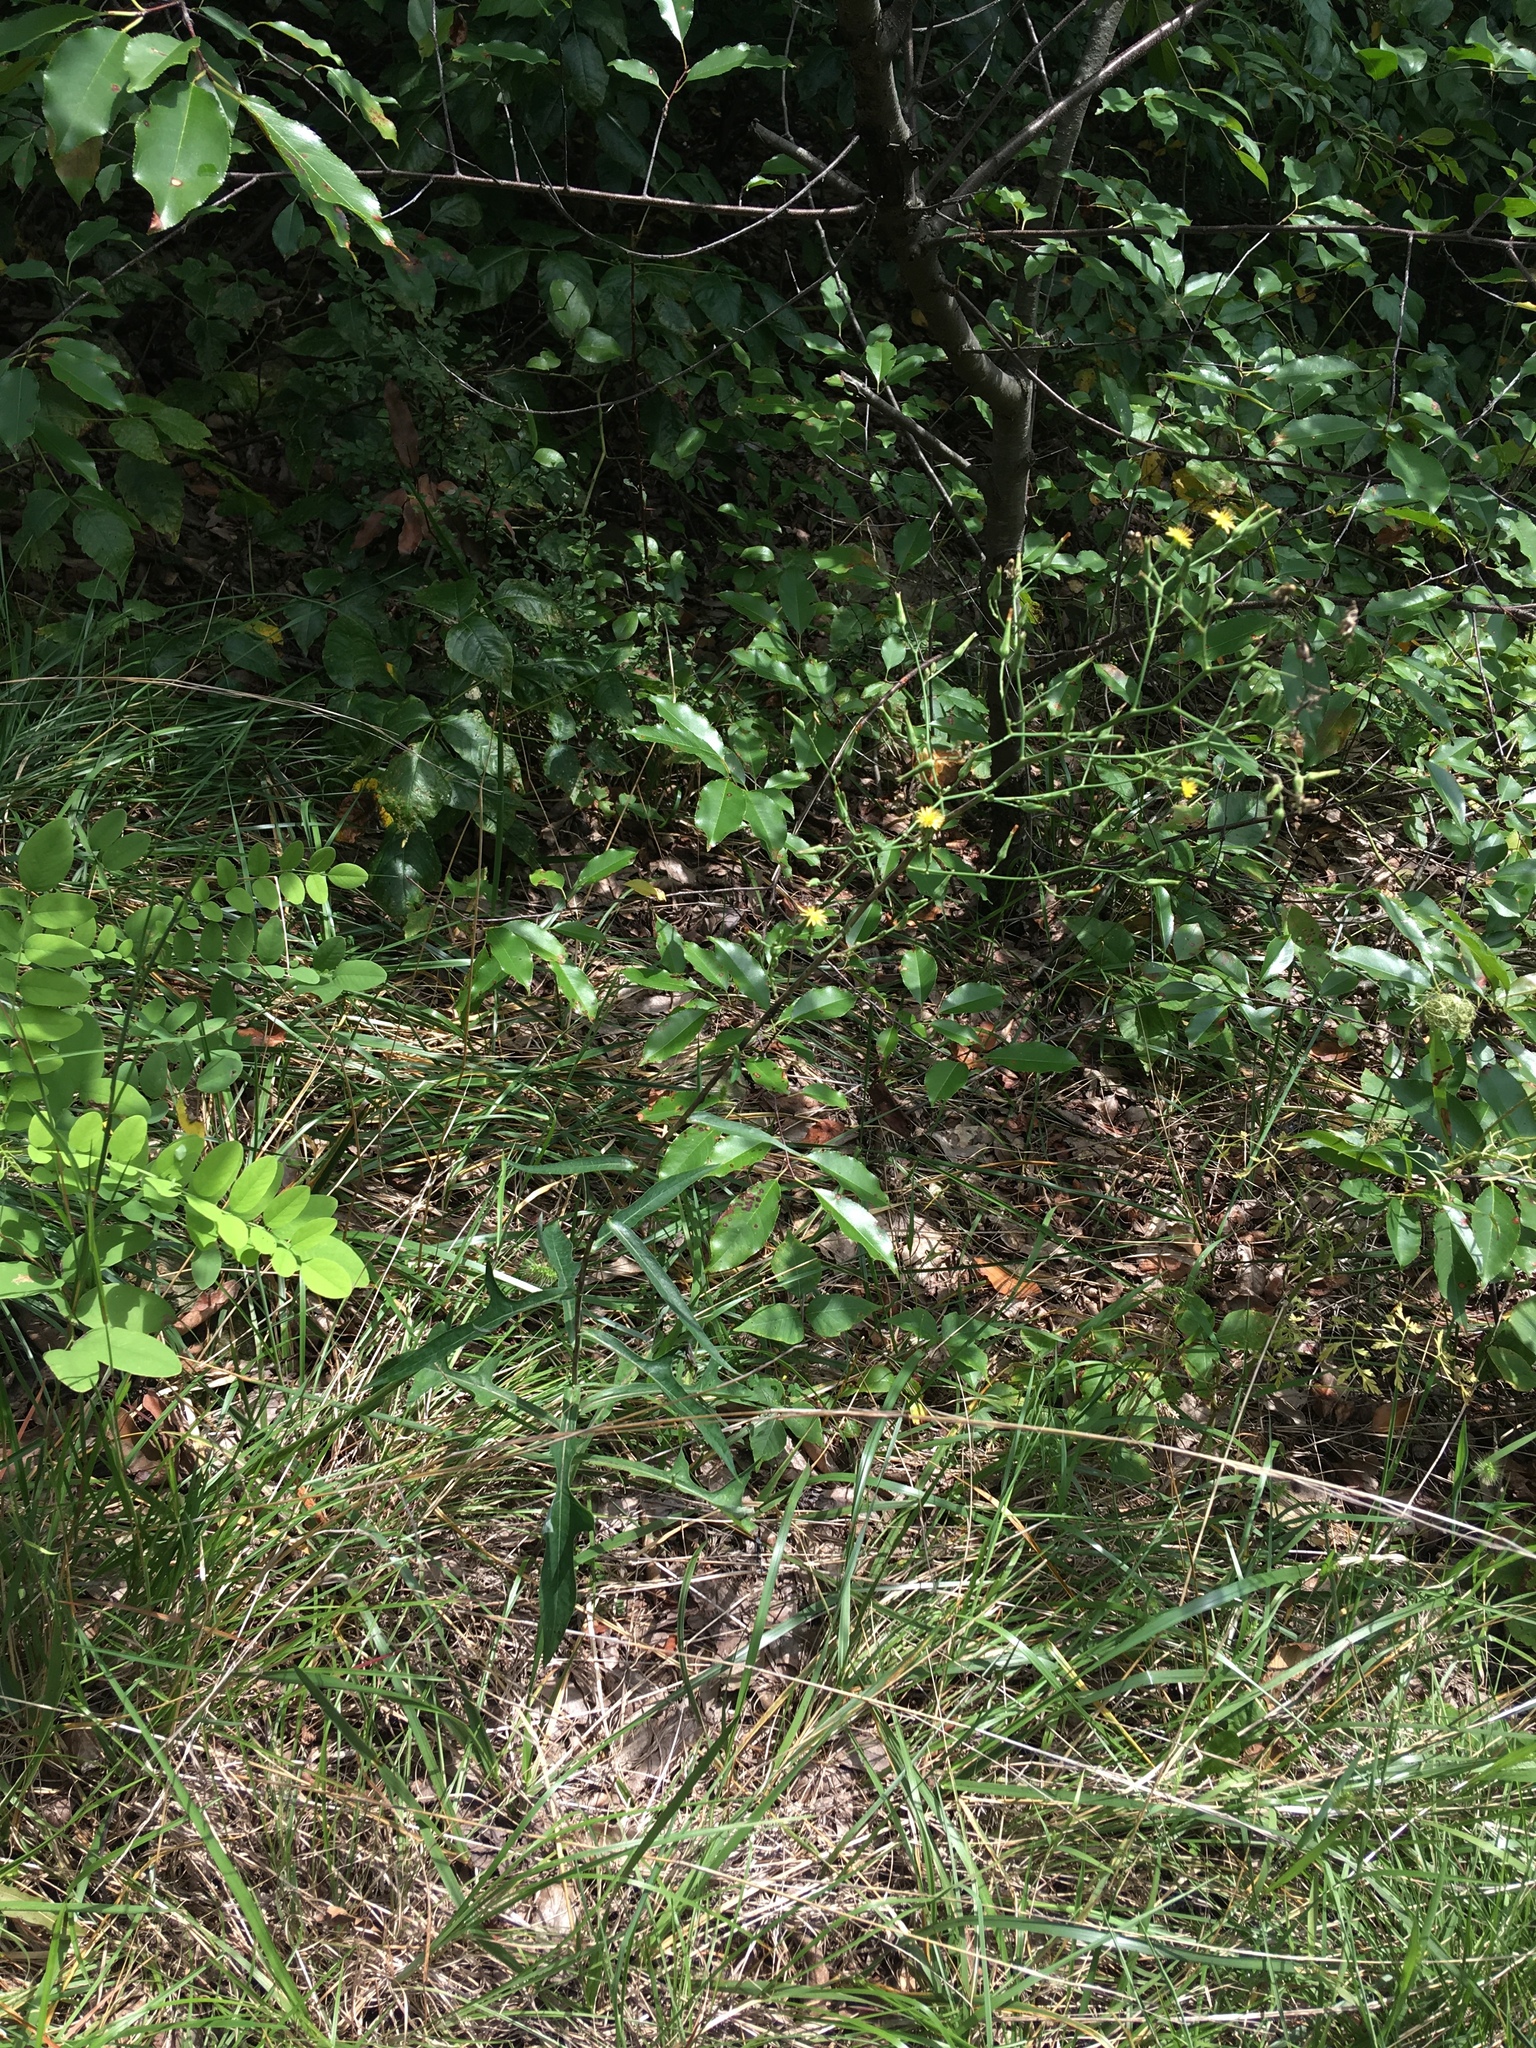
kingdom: Plantae
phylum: Tracheophyta
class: Magnoliopsida
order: Rosales
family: Rosaceae
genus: Prunus
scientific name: Prunus serotina
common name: Black cherry
